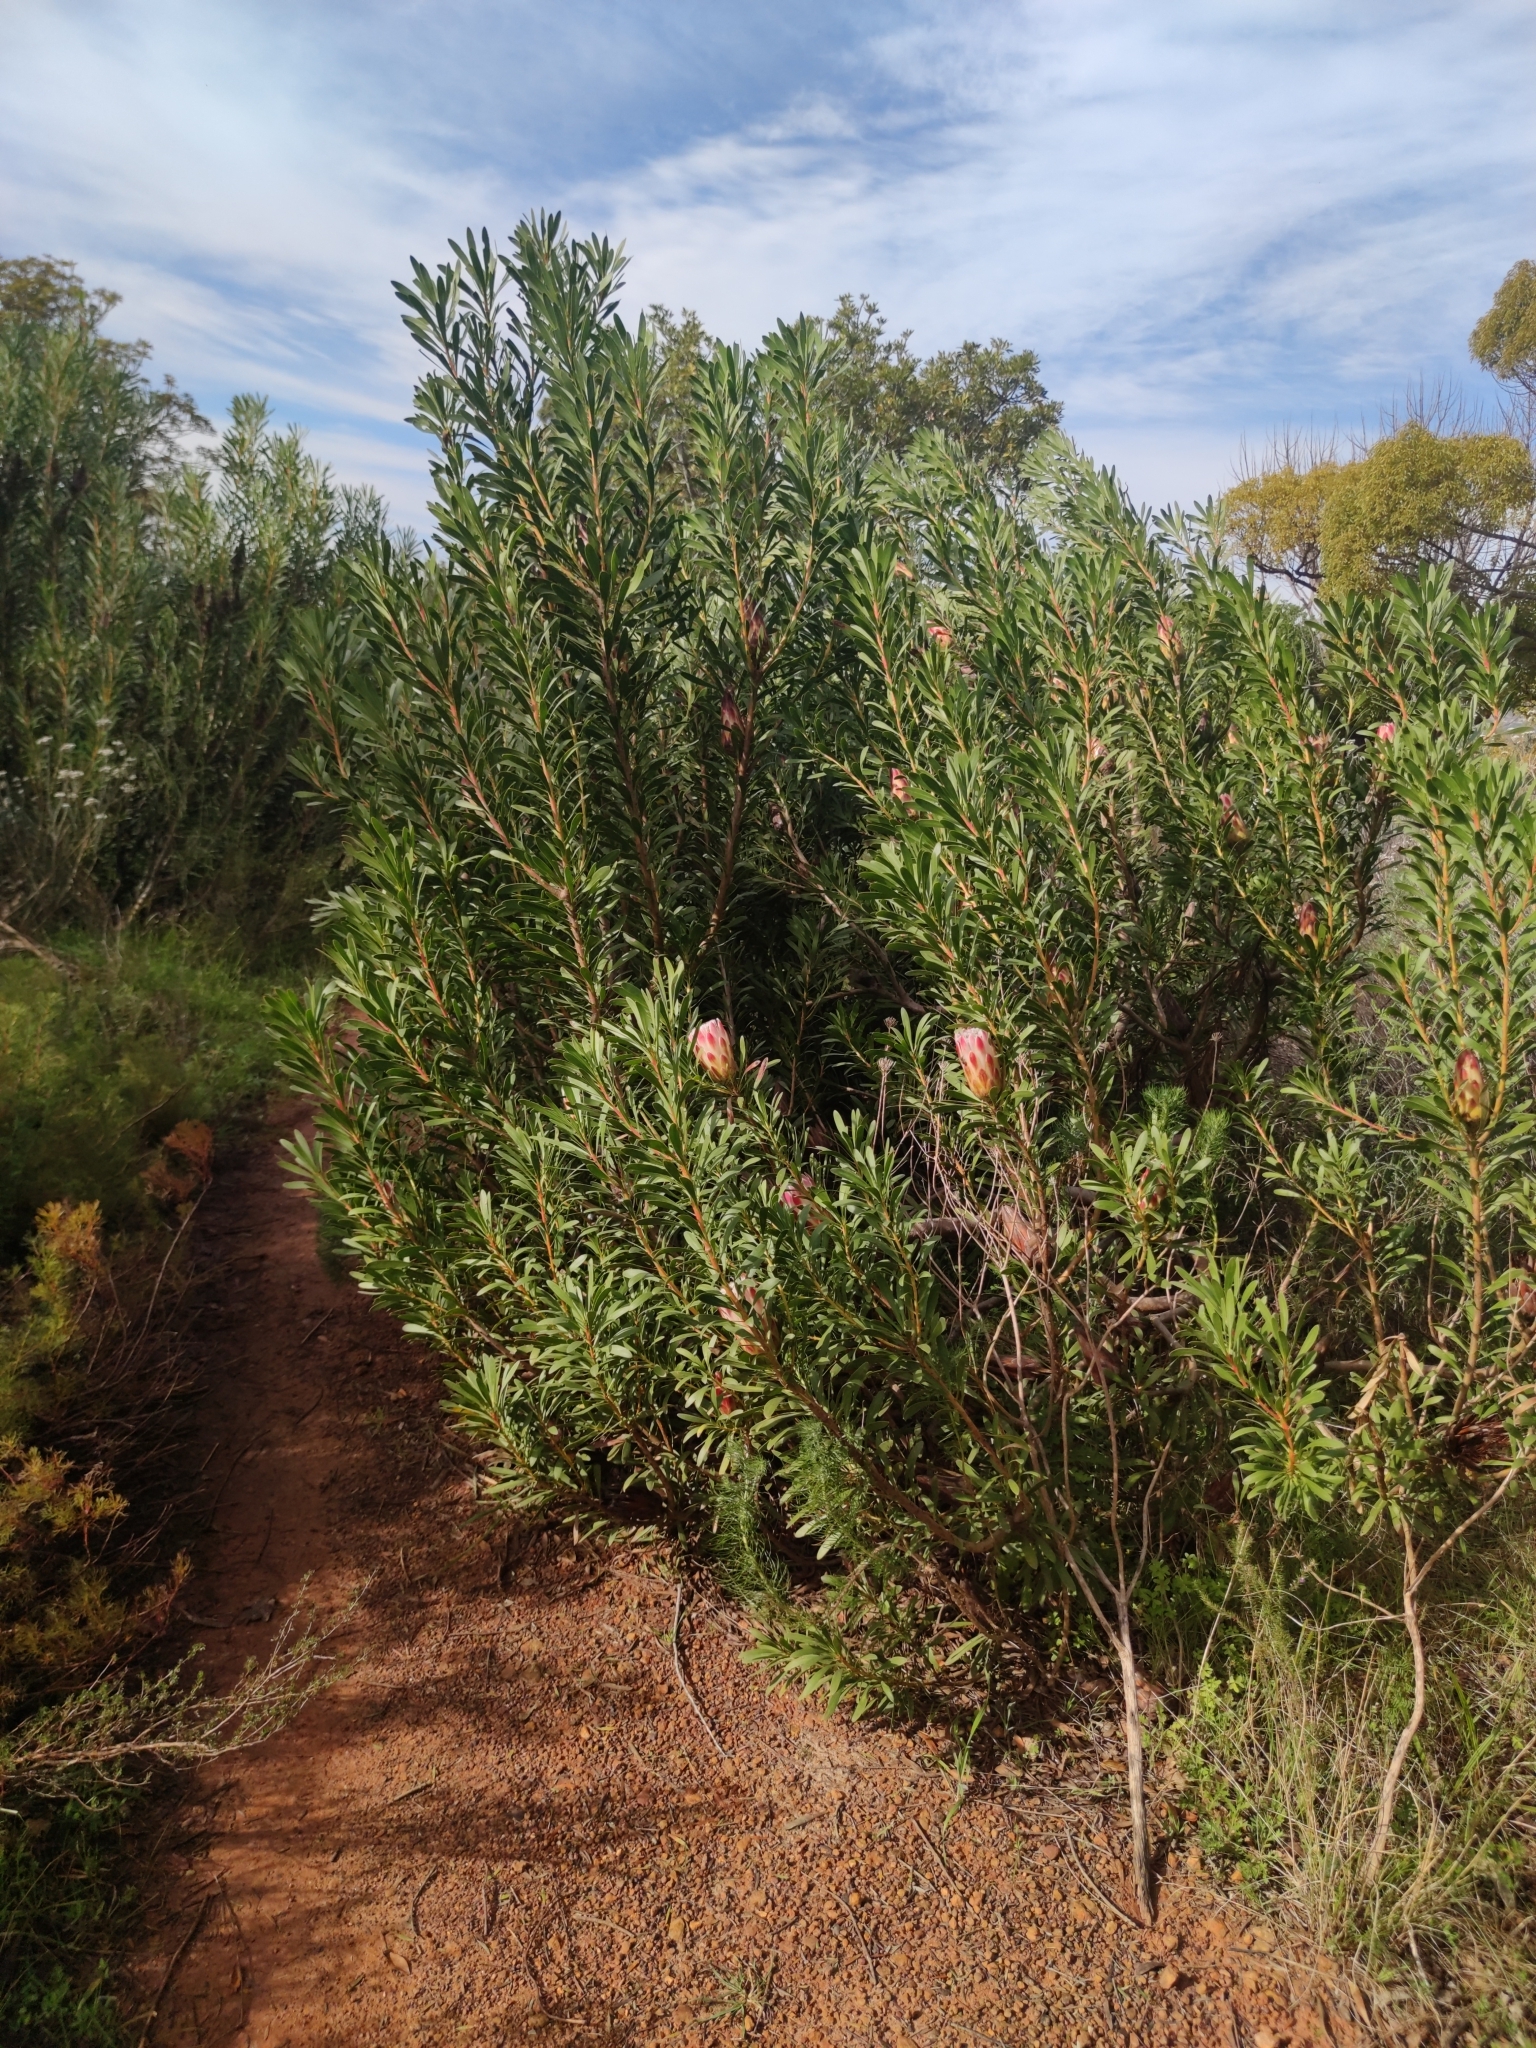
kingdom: Plantae
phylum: Tracheophyta
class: Magnoliopsida
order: Proteales
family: Proteaceae
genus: Protea
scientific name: Protea repens
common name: Sugarbush
